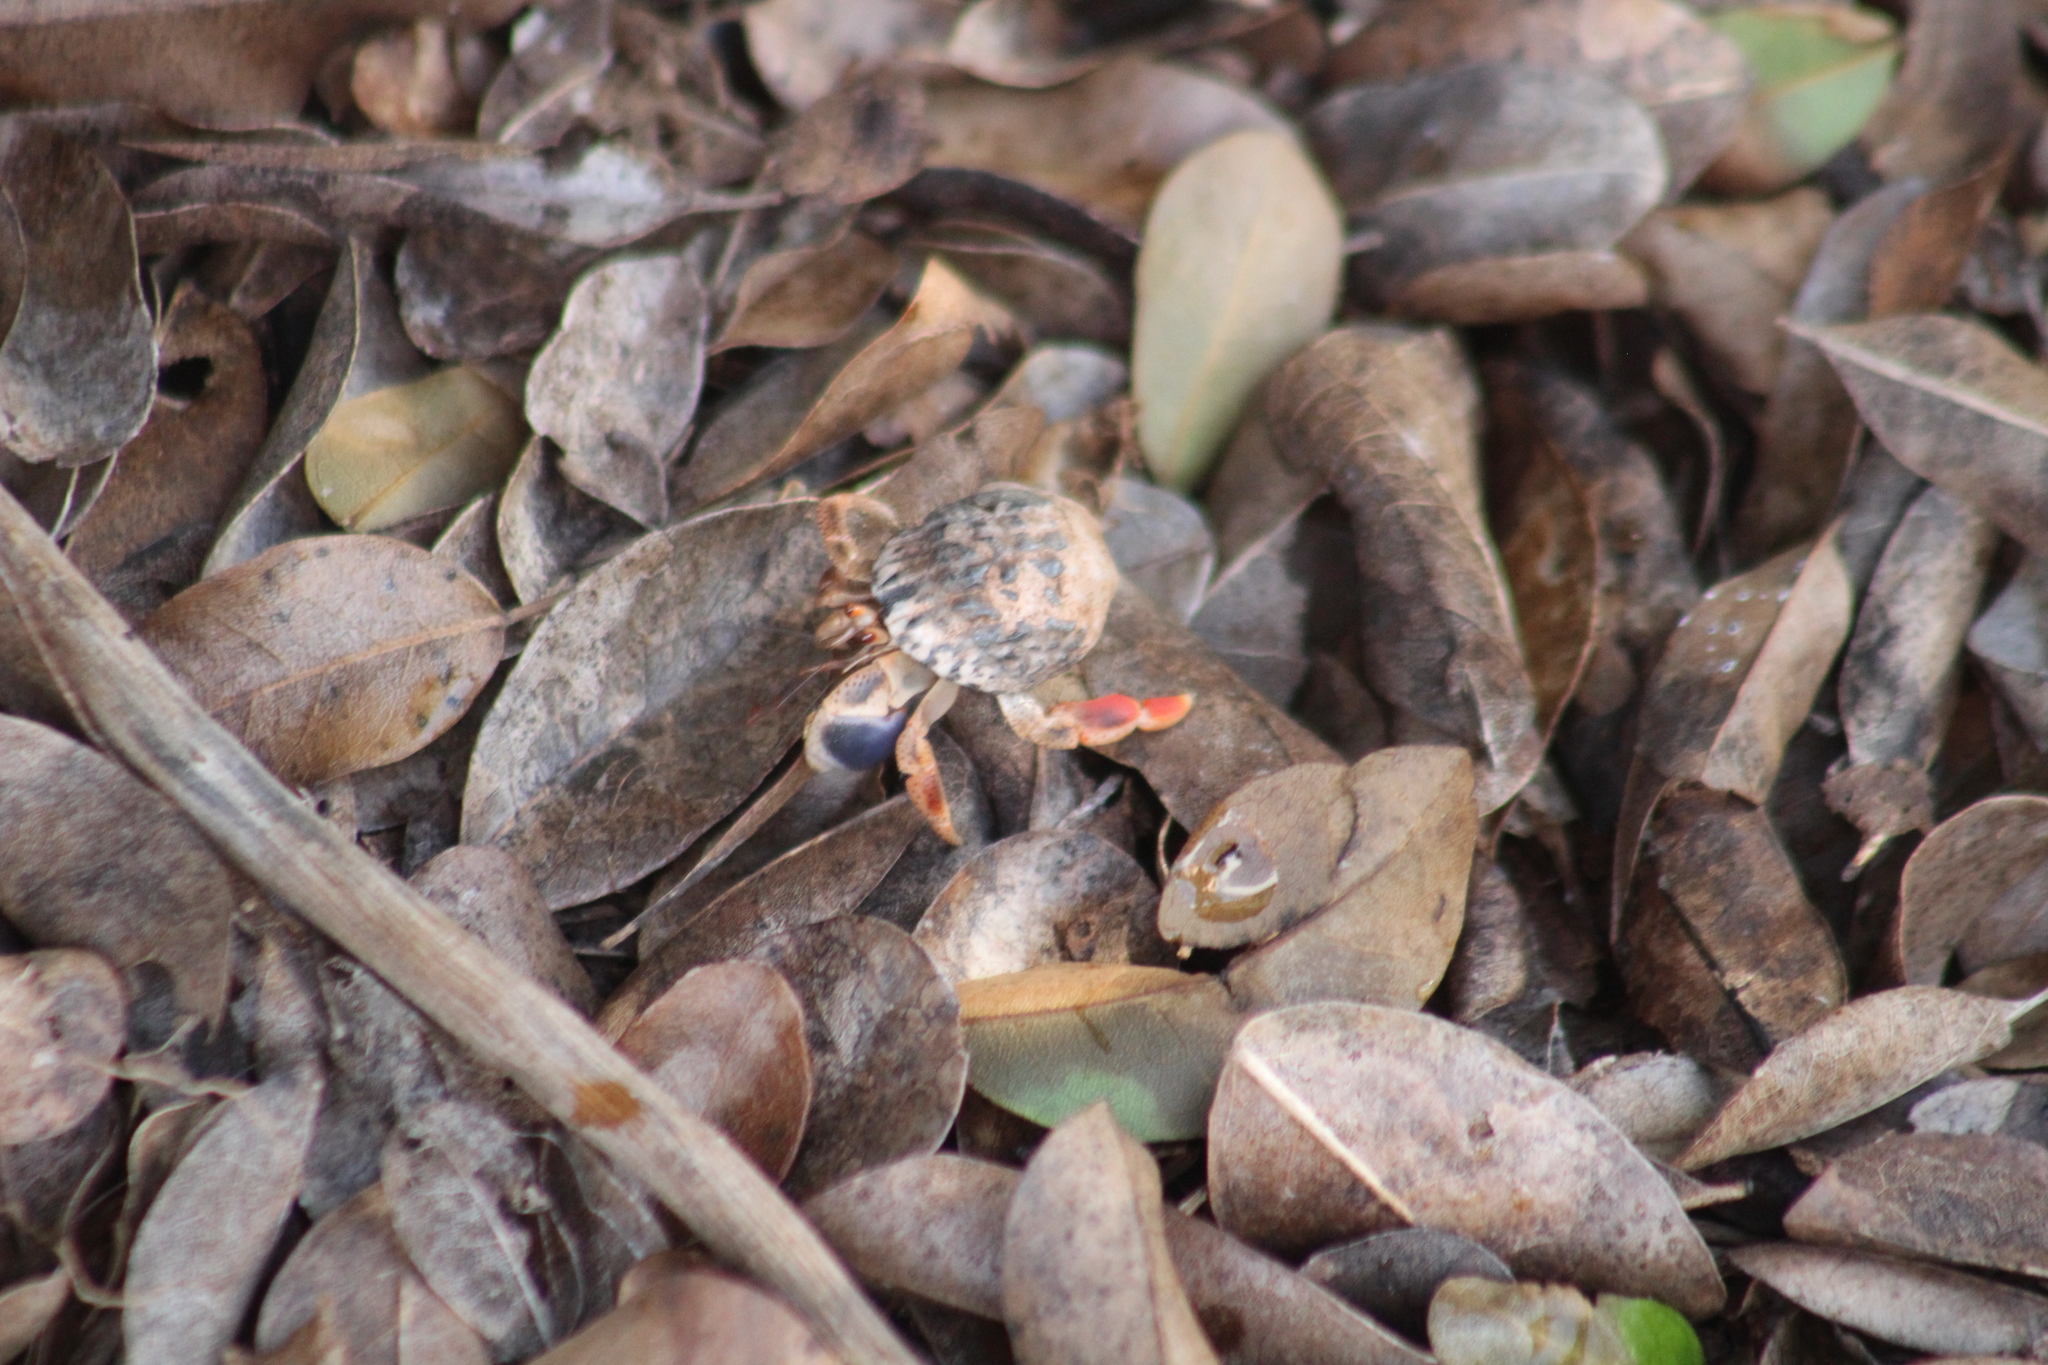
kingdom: Animalia
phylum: Arthropoda
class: Malacostraca
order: Decapoda
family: Coenobitidae
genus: Coenobita
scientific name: Coenobita clypeatus
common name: Caribbean hermit crab
